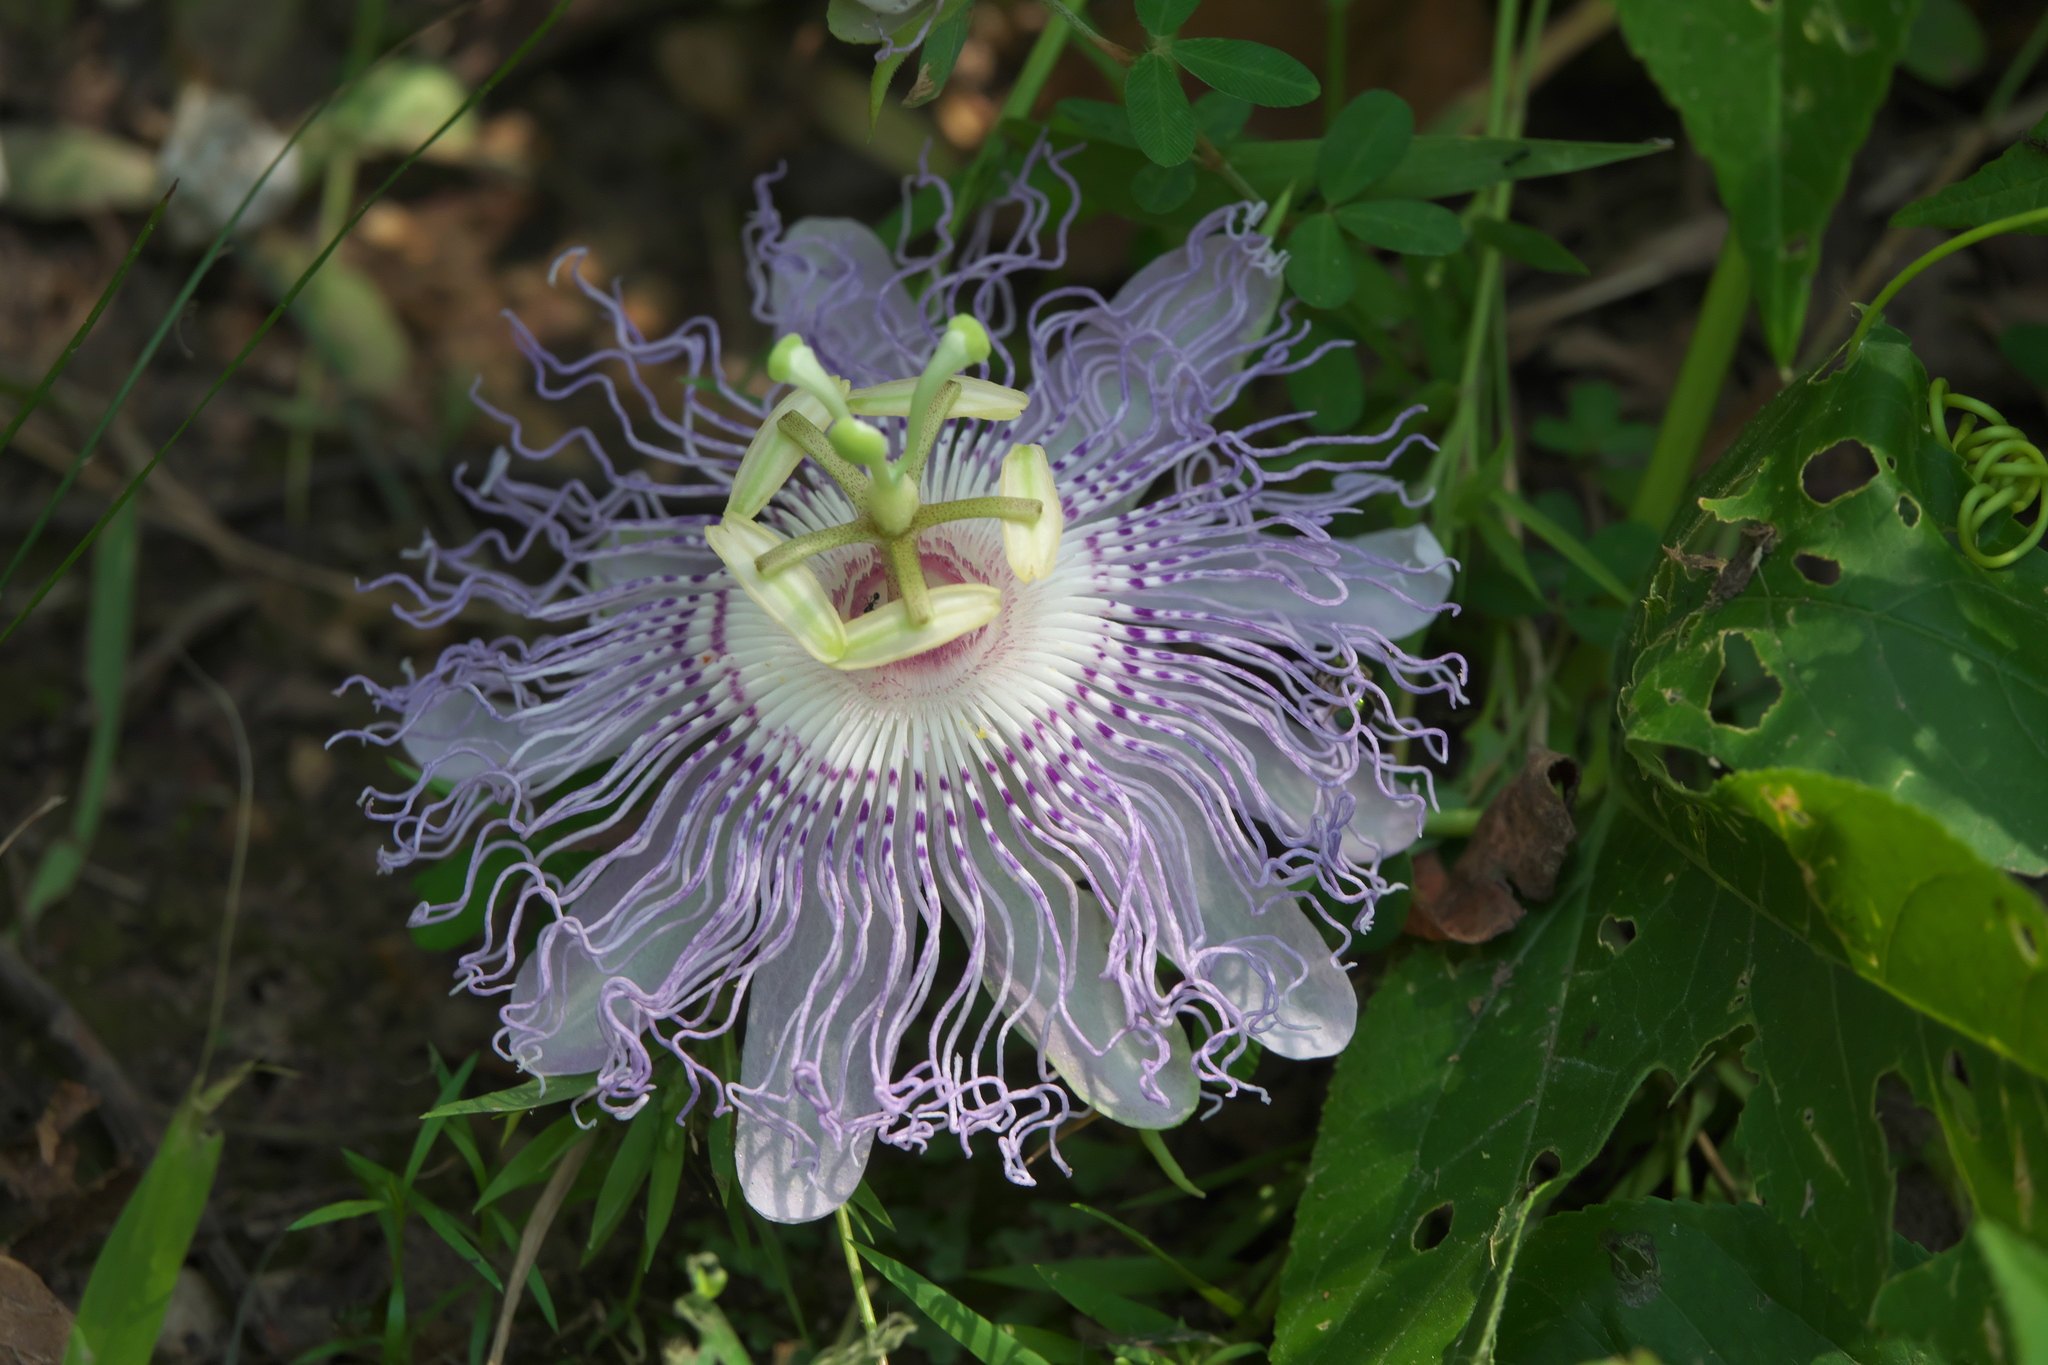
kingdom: Plantae
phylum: Tracheophyta
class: Magnoliopsida
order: Malpighiales
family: Passifloraceae
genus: Passiflora
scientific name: Passiflora incarnata
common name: Apricot-vine
